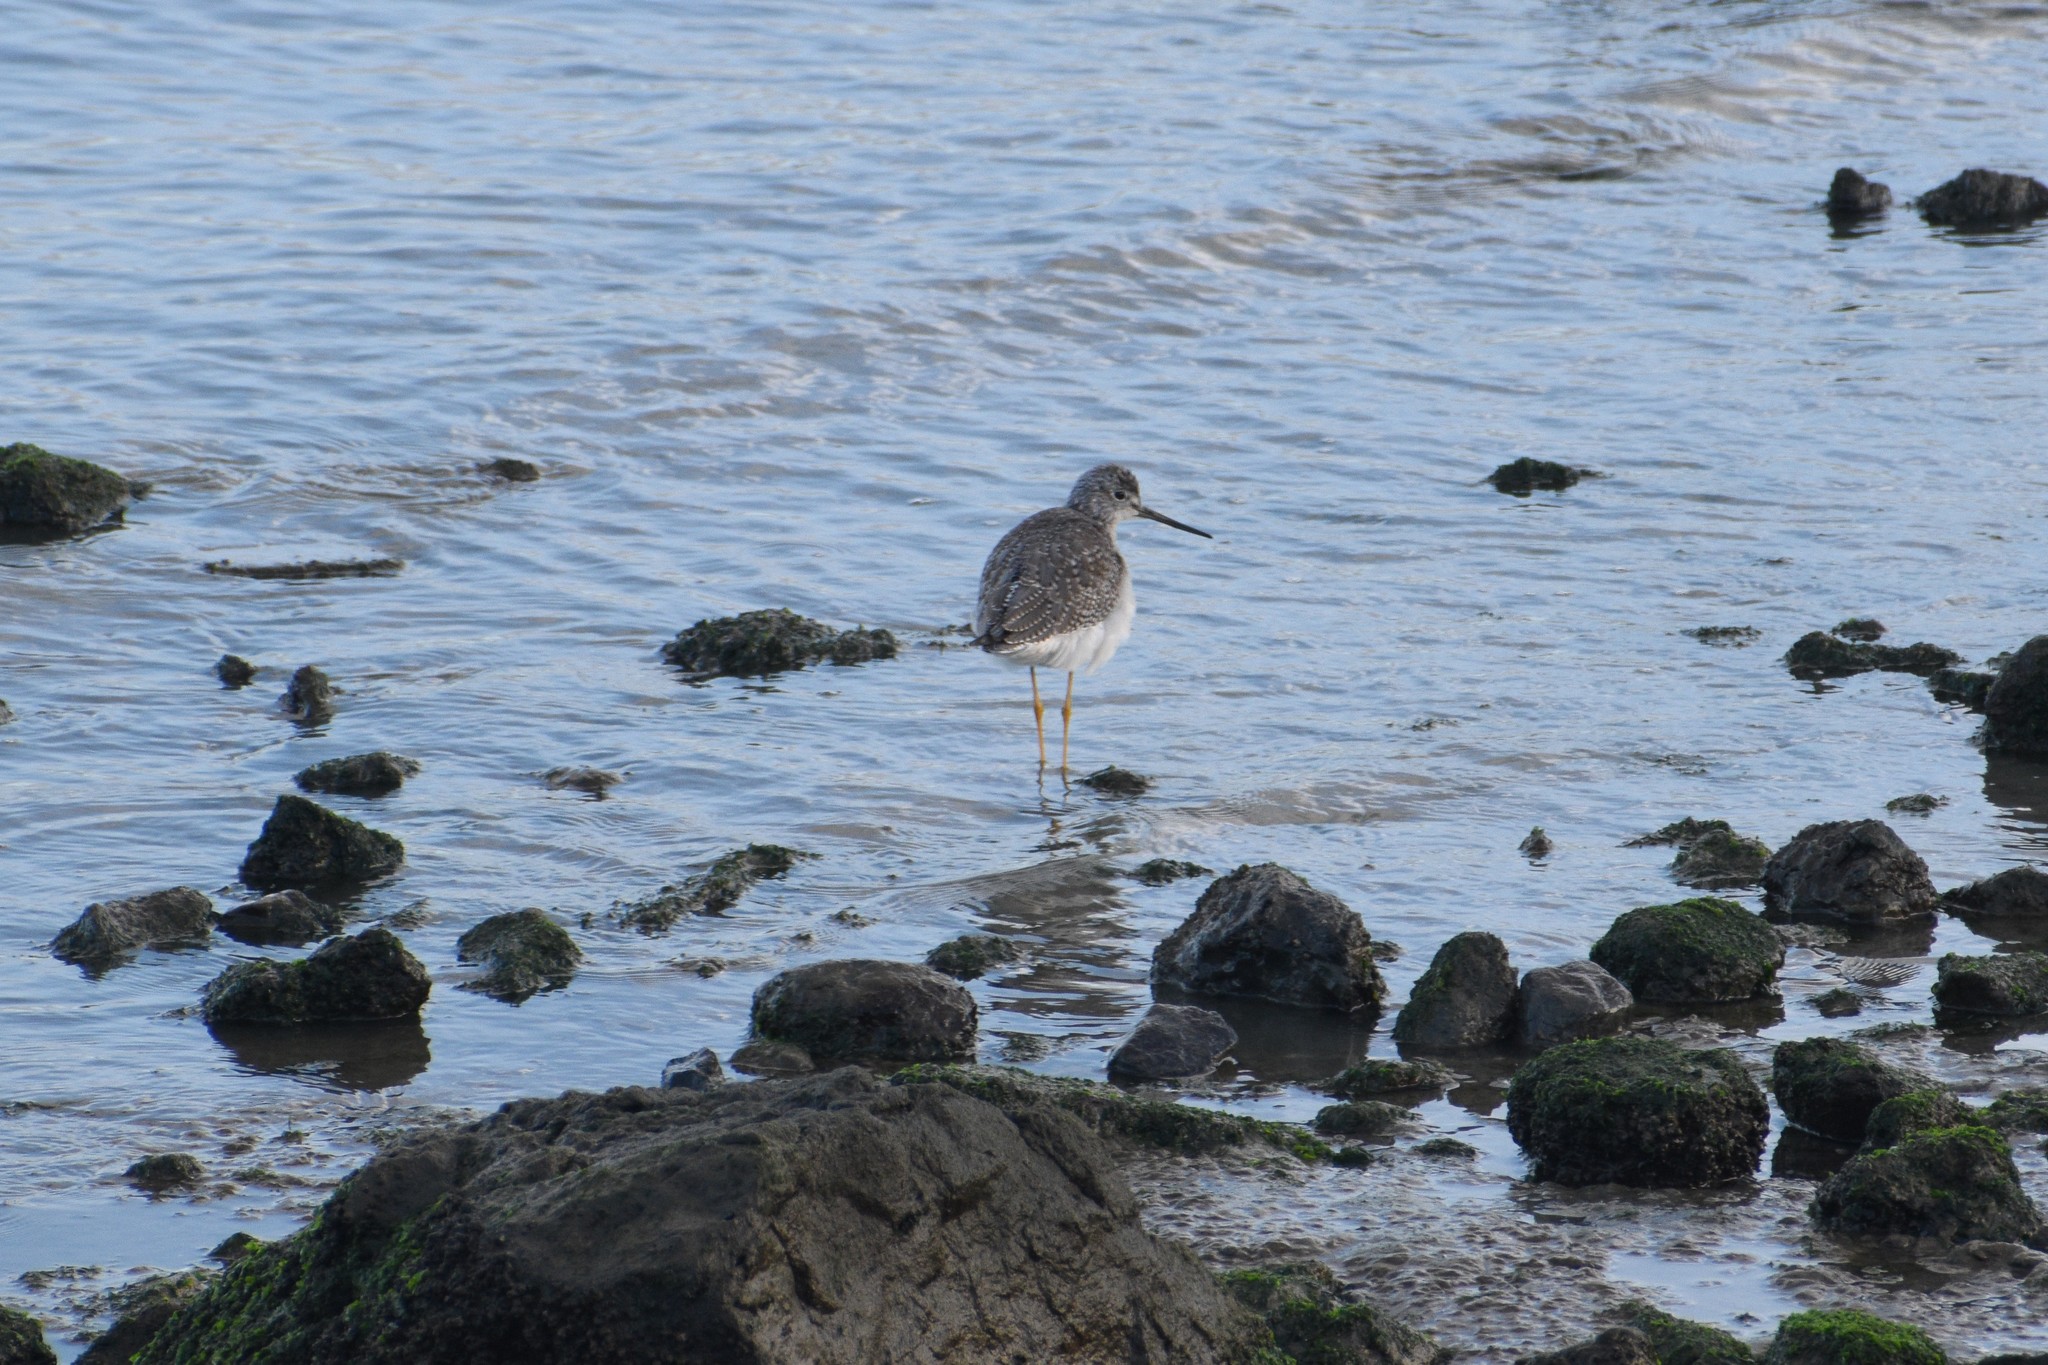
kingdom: Animalia
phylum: Chordata
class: Aves
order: Charadriiformes
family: Scolopacidae
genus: Tringa
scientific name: Tringa melanoleuca
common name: Greater yellowlegs
